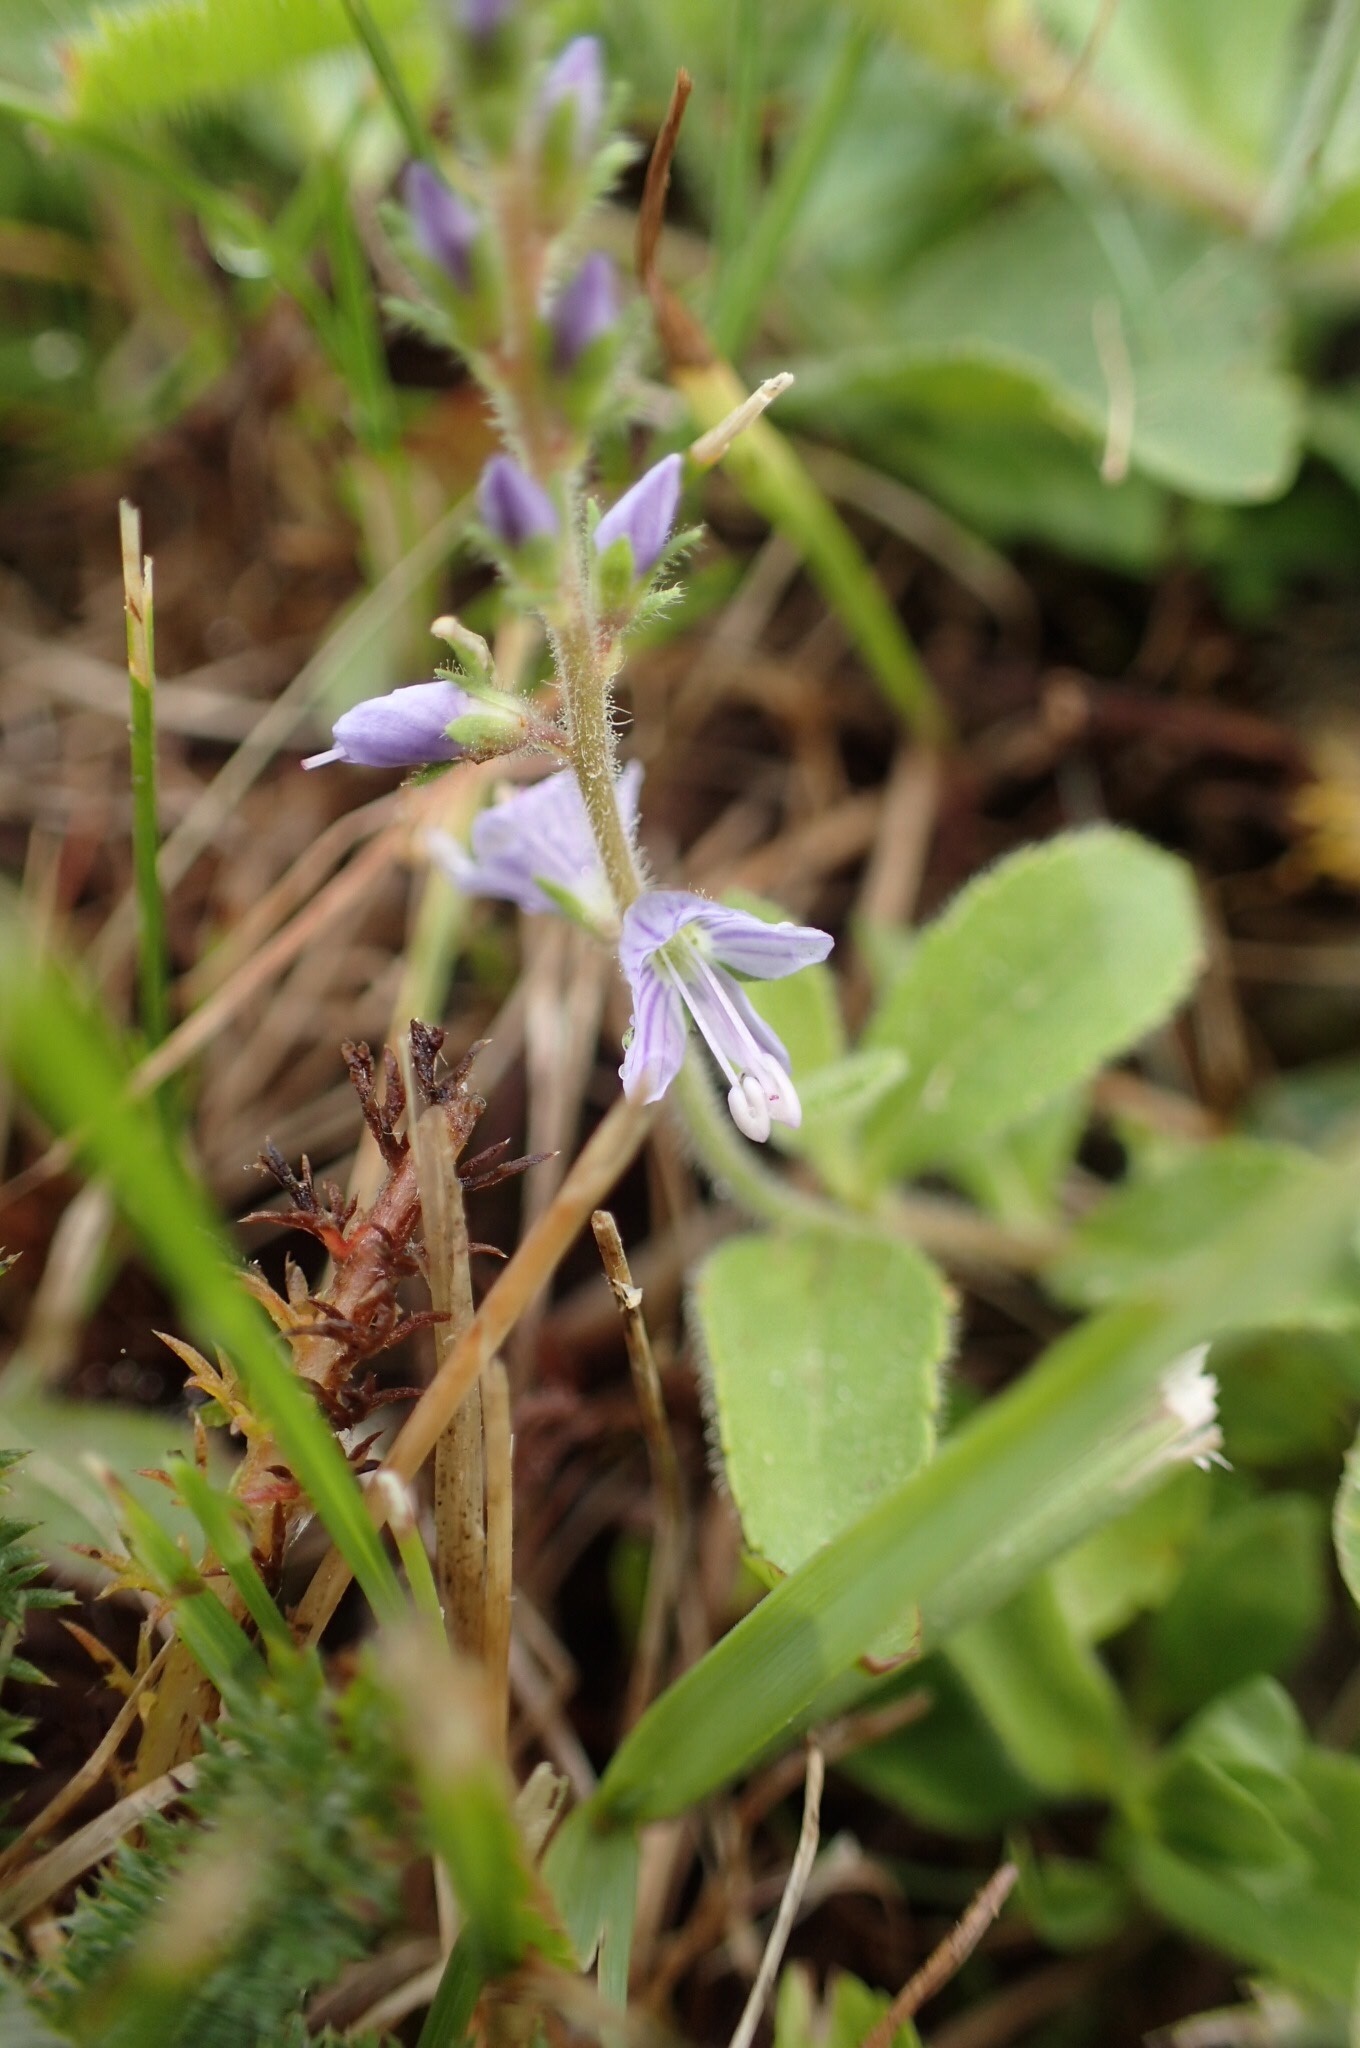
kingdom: Plantae
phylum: Tracheophyta
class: Magnoliopsida
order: Lamiales
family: Plantaginaceae
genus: Veronica
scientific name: Veronica officinalis
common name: Common speedwell
